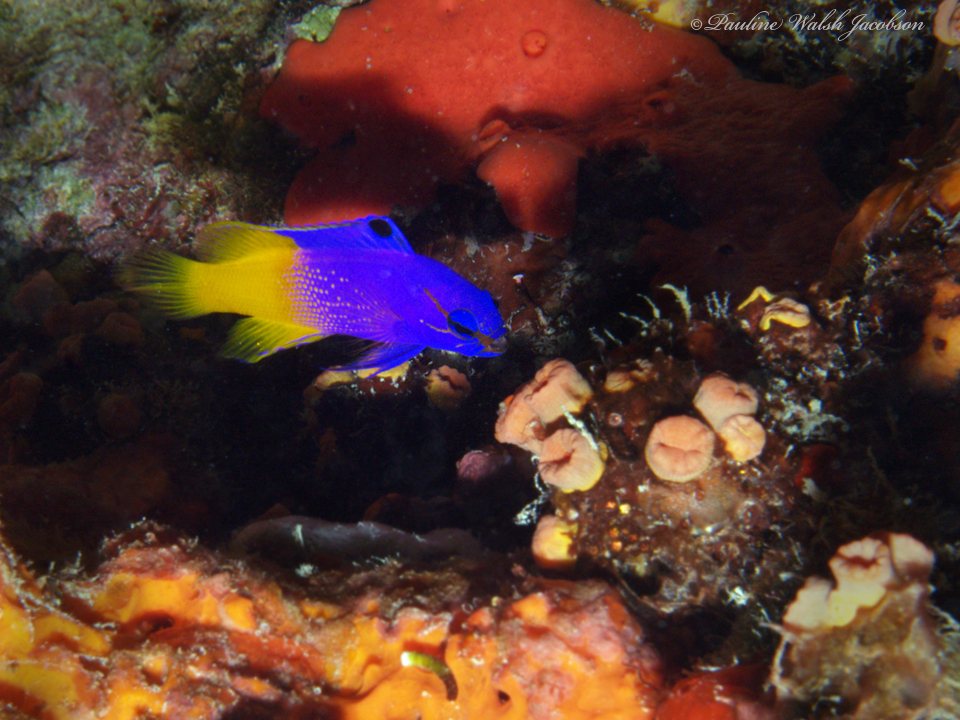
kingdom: Animalia
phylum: Chordata
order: Perciformes
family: Grammatidae
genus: Gramma
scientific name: Gramma loreto
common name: Fairy basslet
